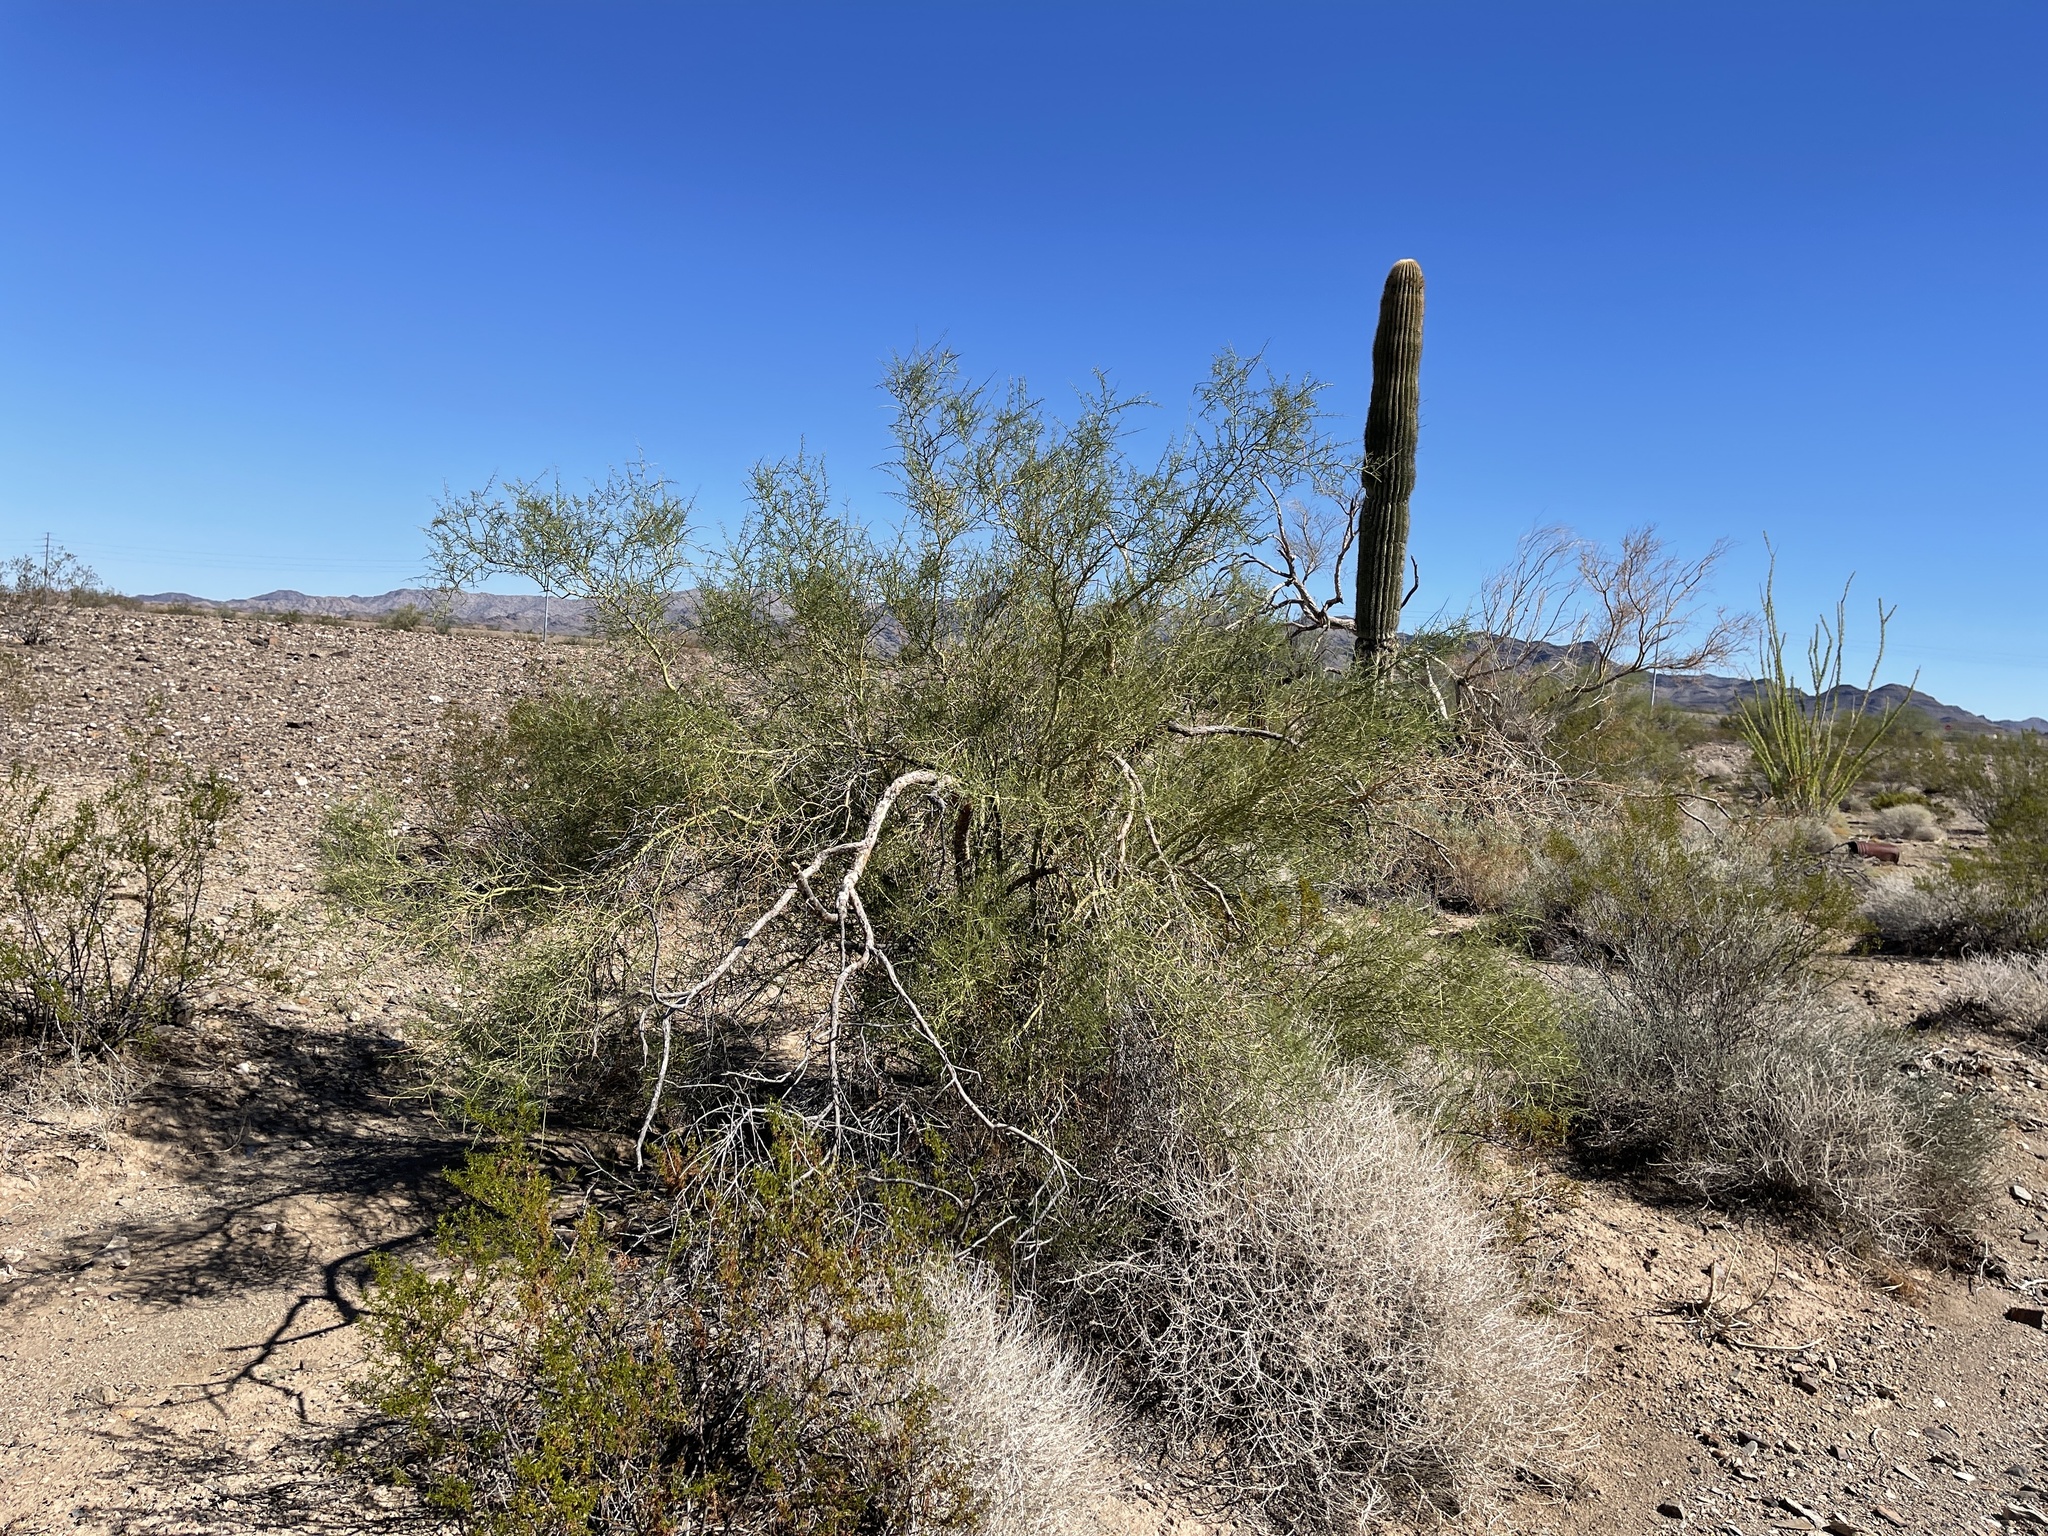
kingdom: Plantae
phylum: Tracheophyta
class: Magnoliopsida
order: Fabales
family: Fabaceae
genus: Parkinsonia
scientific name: Parkinsonia microphylla
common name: Yellow paloverde
